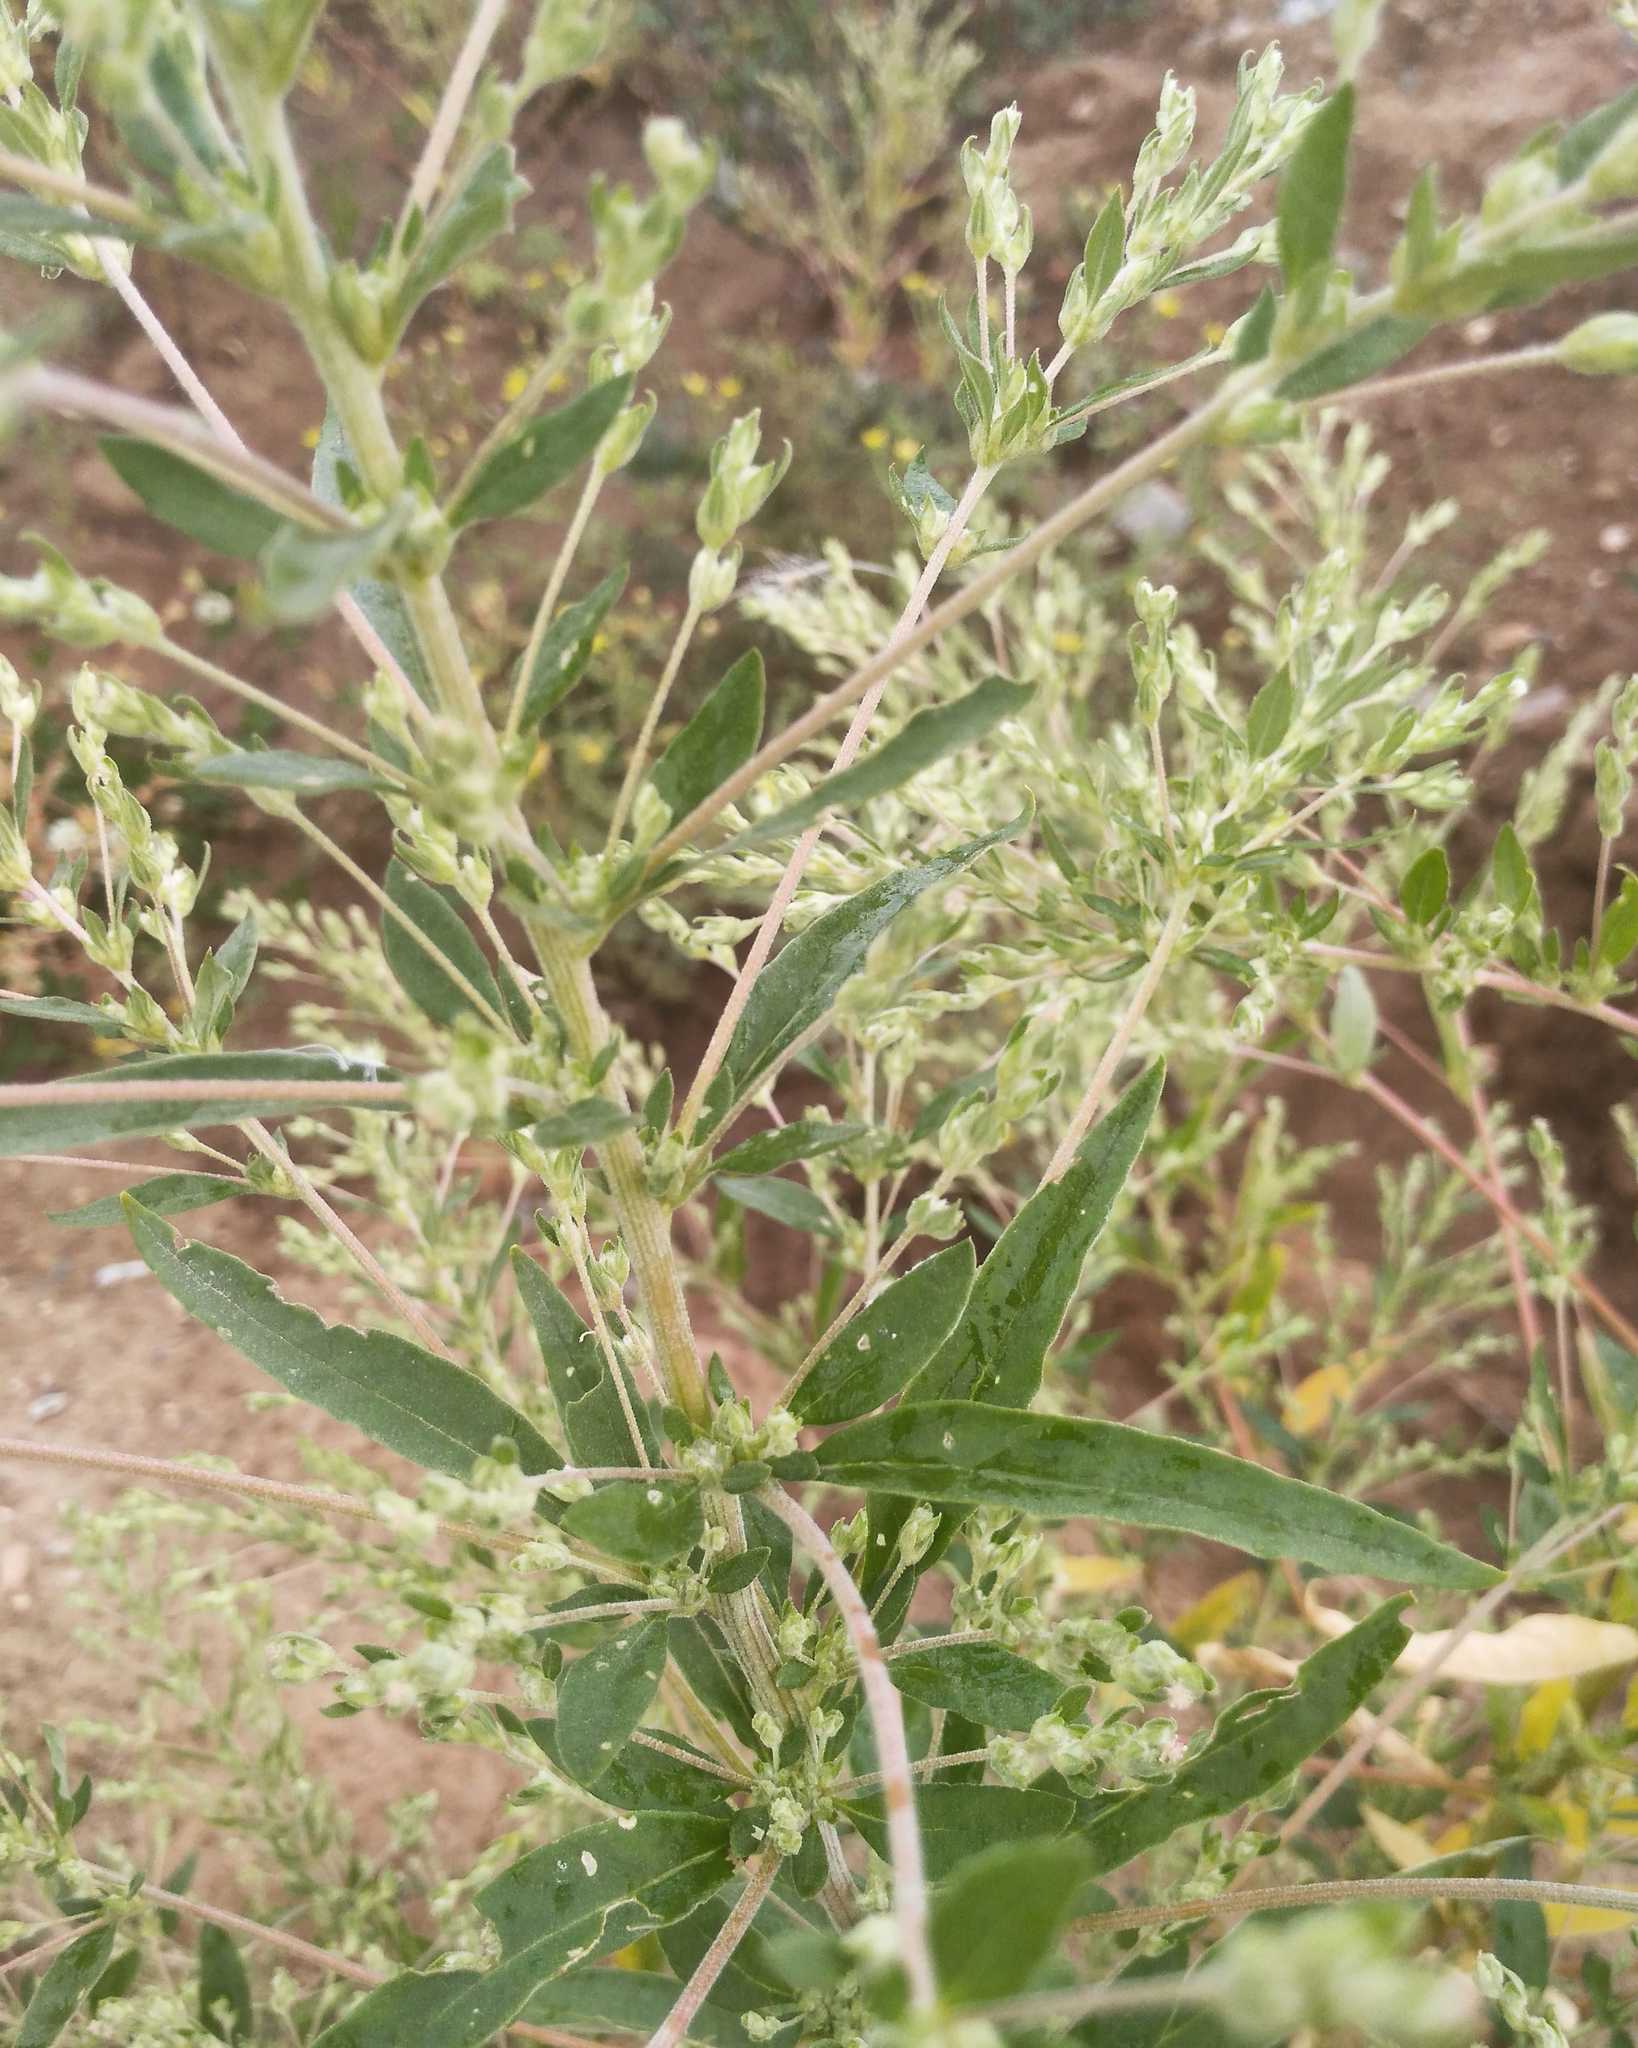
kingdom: Plantae
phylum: Tracheophyta
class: Magnoliopsida
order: Caryophyllales
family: Amaranthaceae
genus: Axyris
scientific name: Axyris amaranthoides
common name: Russian pigweed
